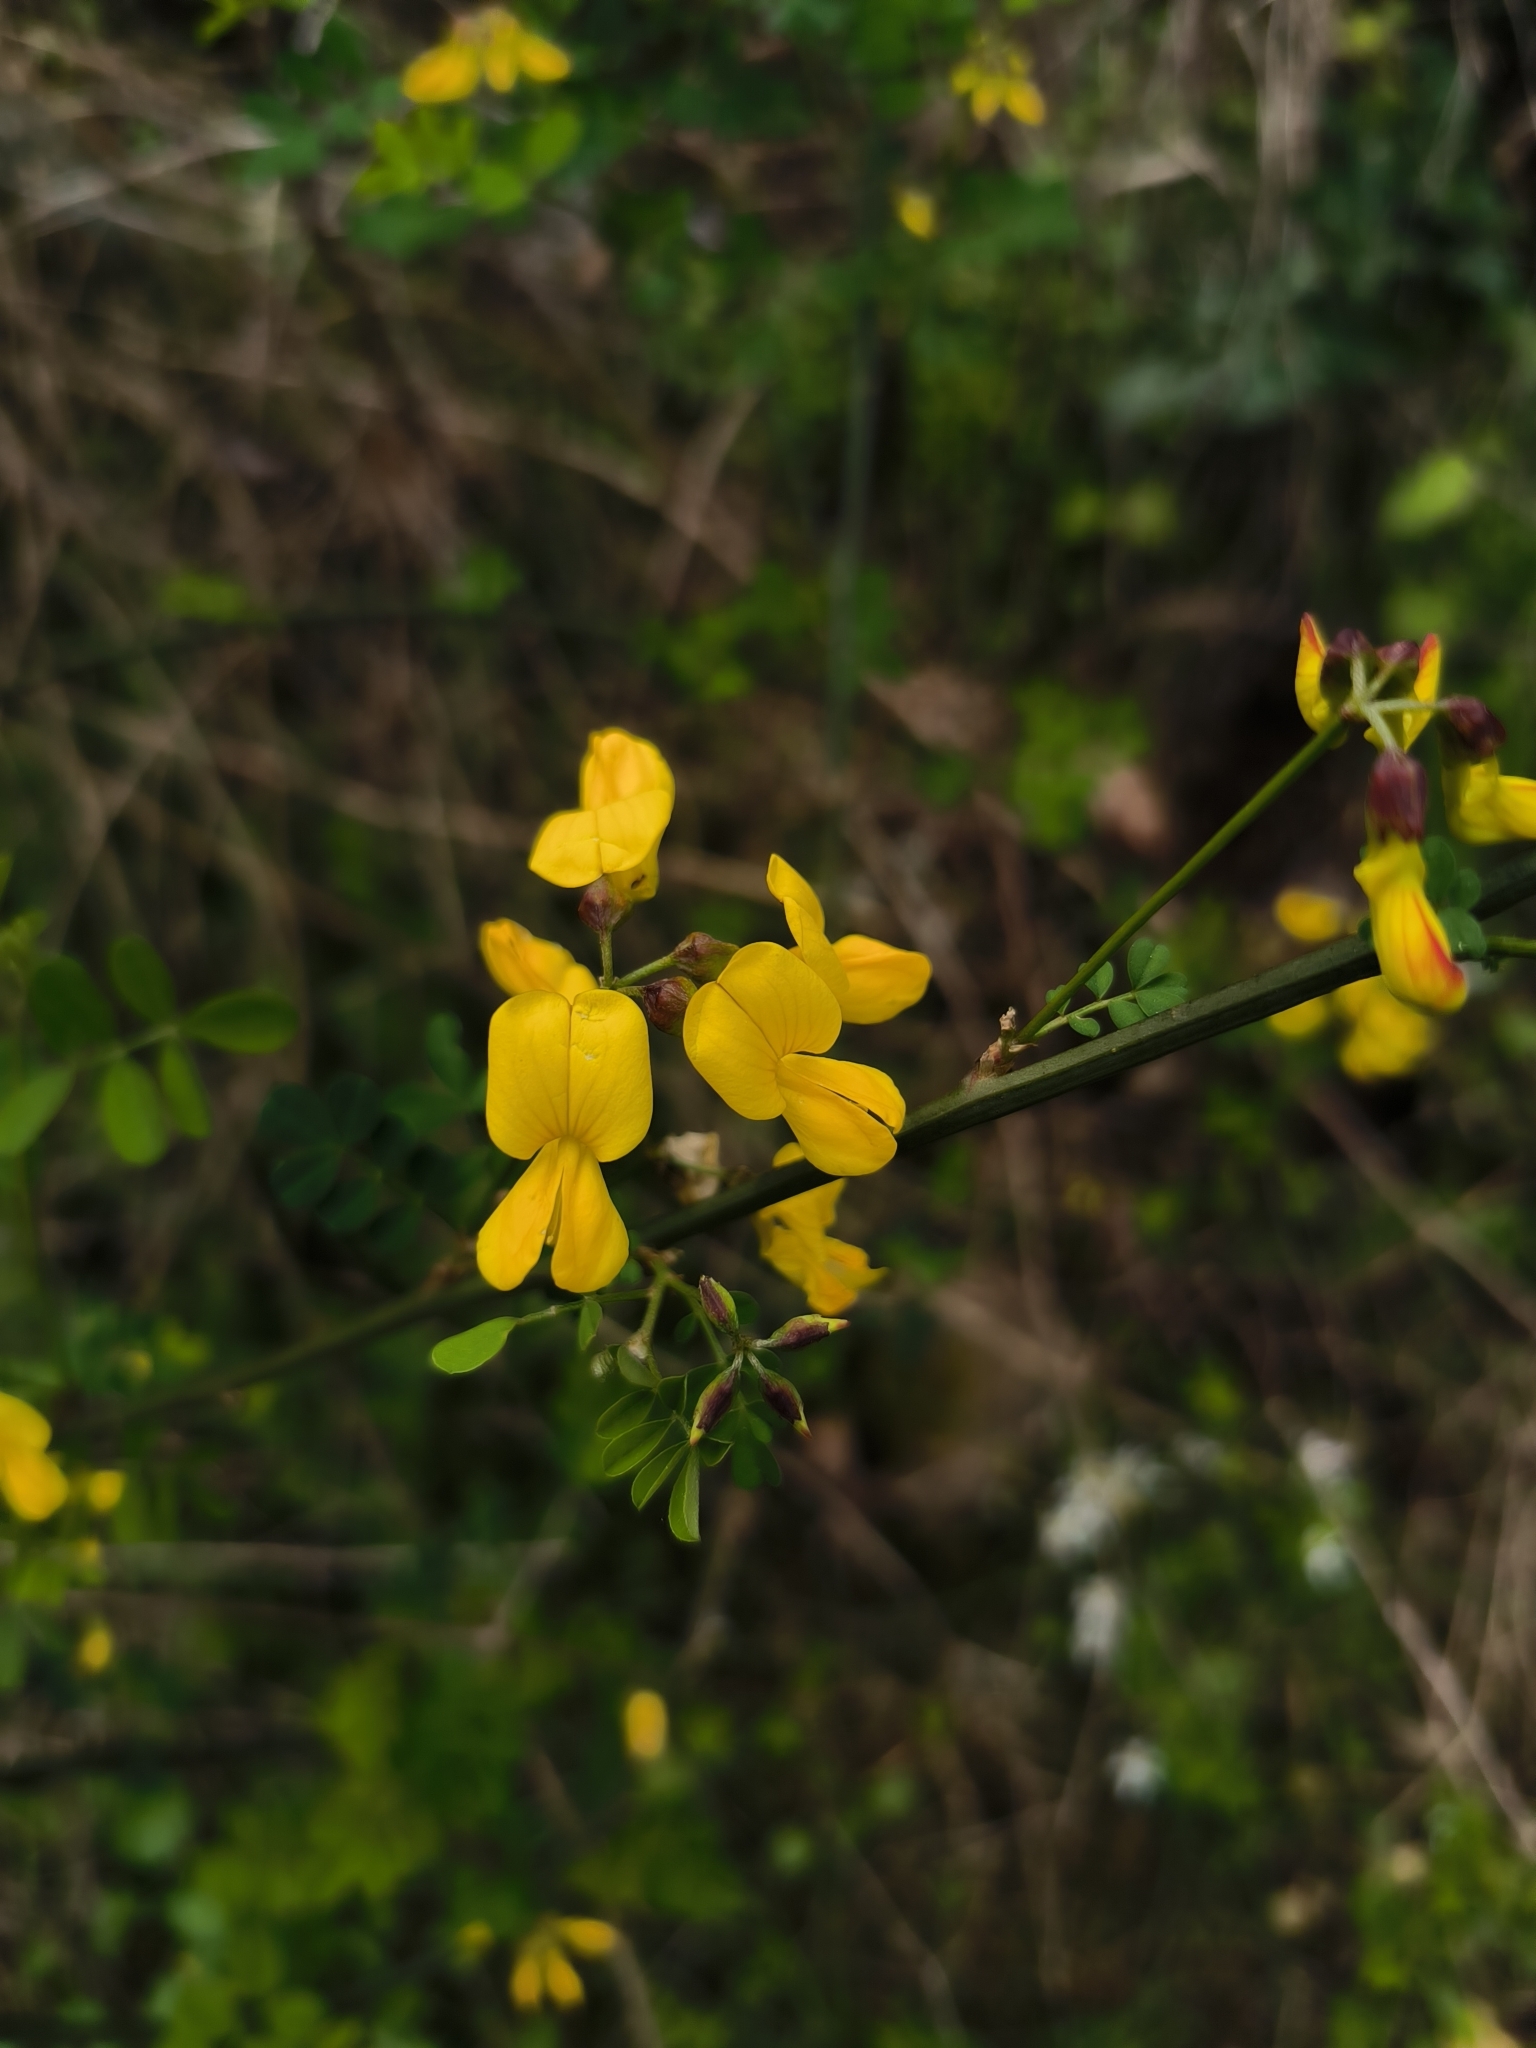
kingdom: Plantae
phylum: Tracheophyta
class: Magnoliopsida
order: Fabales
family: Fabaceae
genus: Hippocrepis
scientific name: Hippocrepis emerus
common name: Scorpion senna
